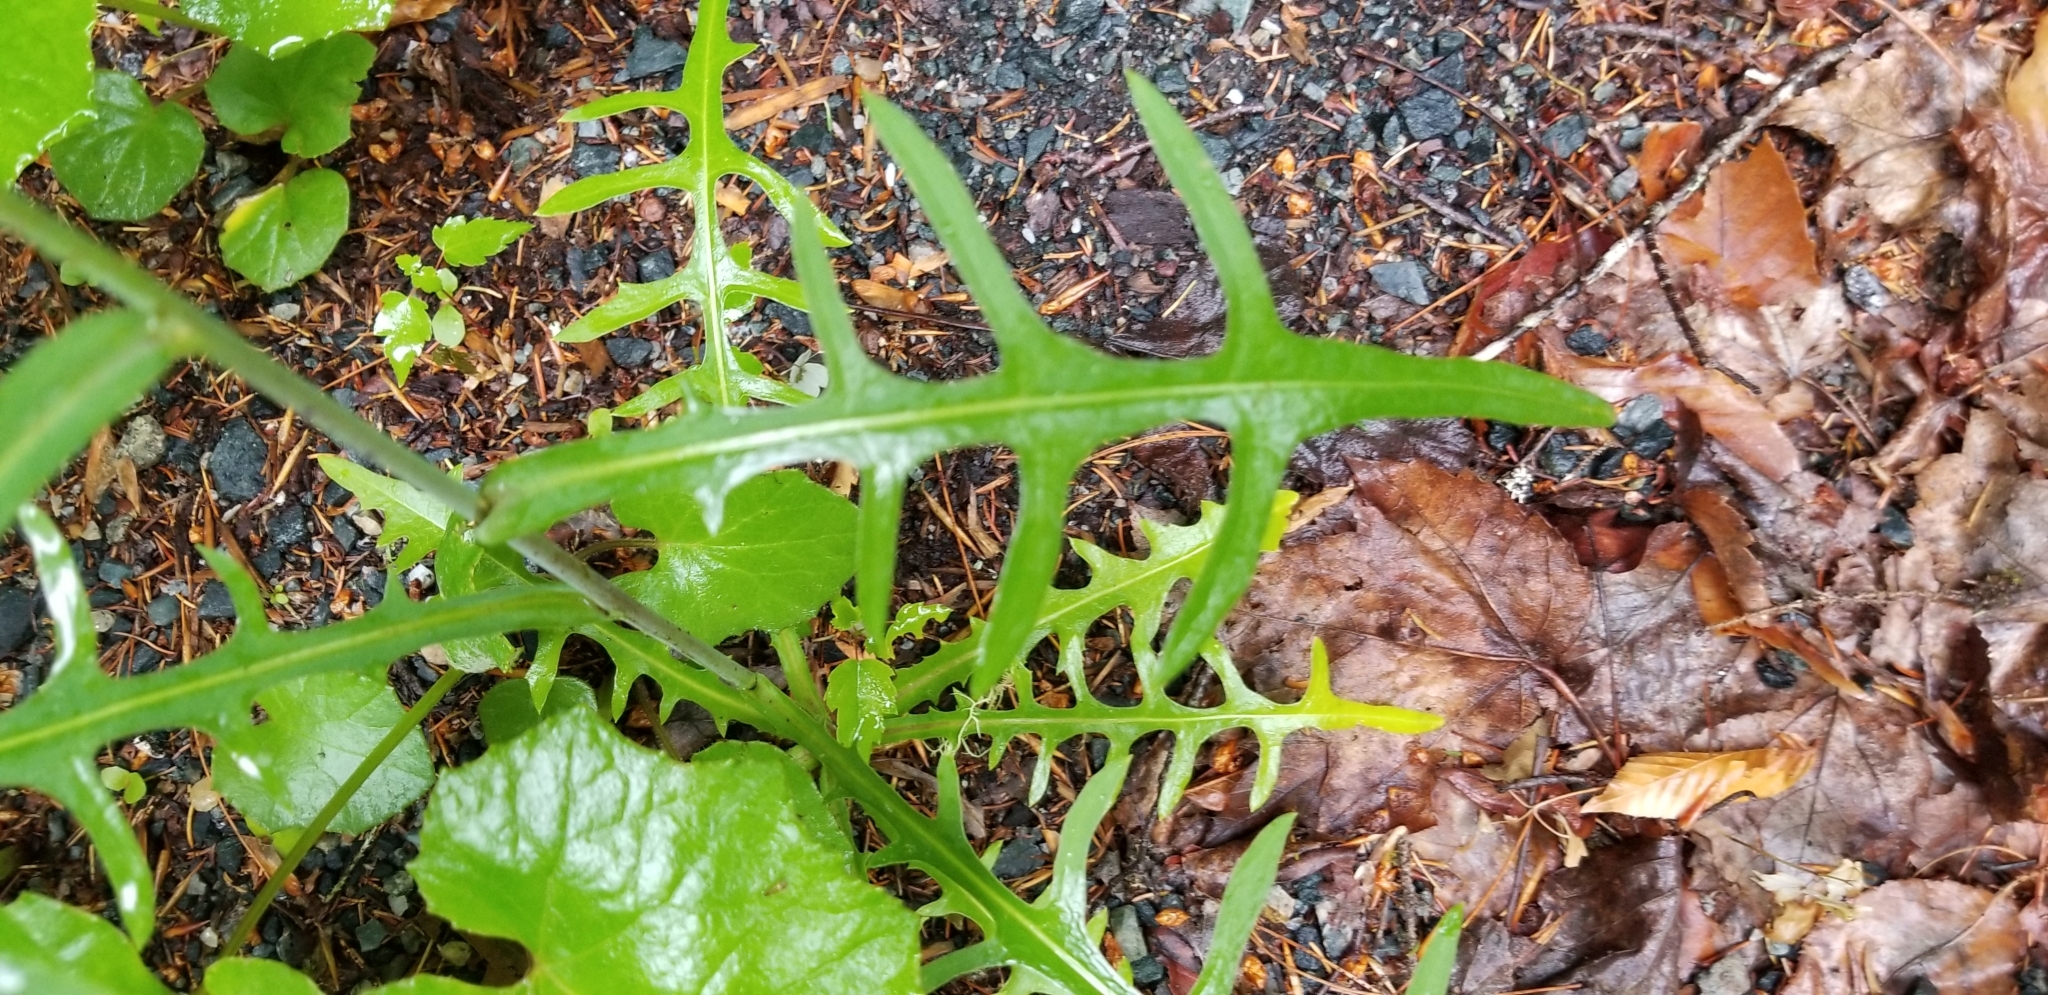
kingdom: Plantae
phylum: Tracheophyta
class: Magnoliopsida
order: Asterales
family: Asteraceae
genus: Lactuca
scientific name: Lactuca canadensis
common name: Canada lettuce
